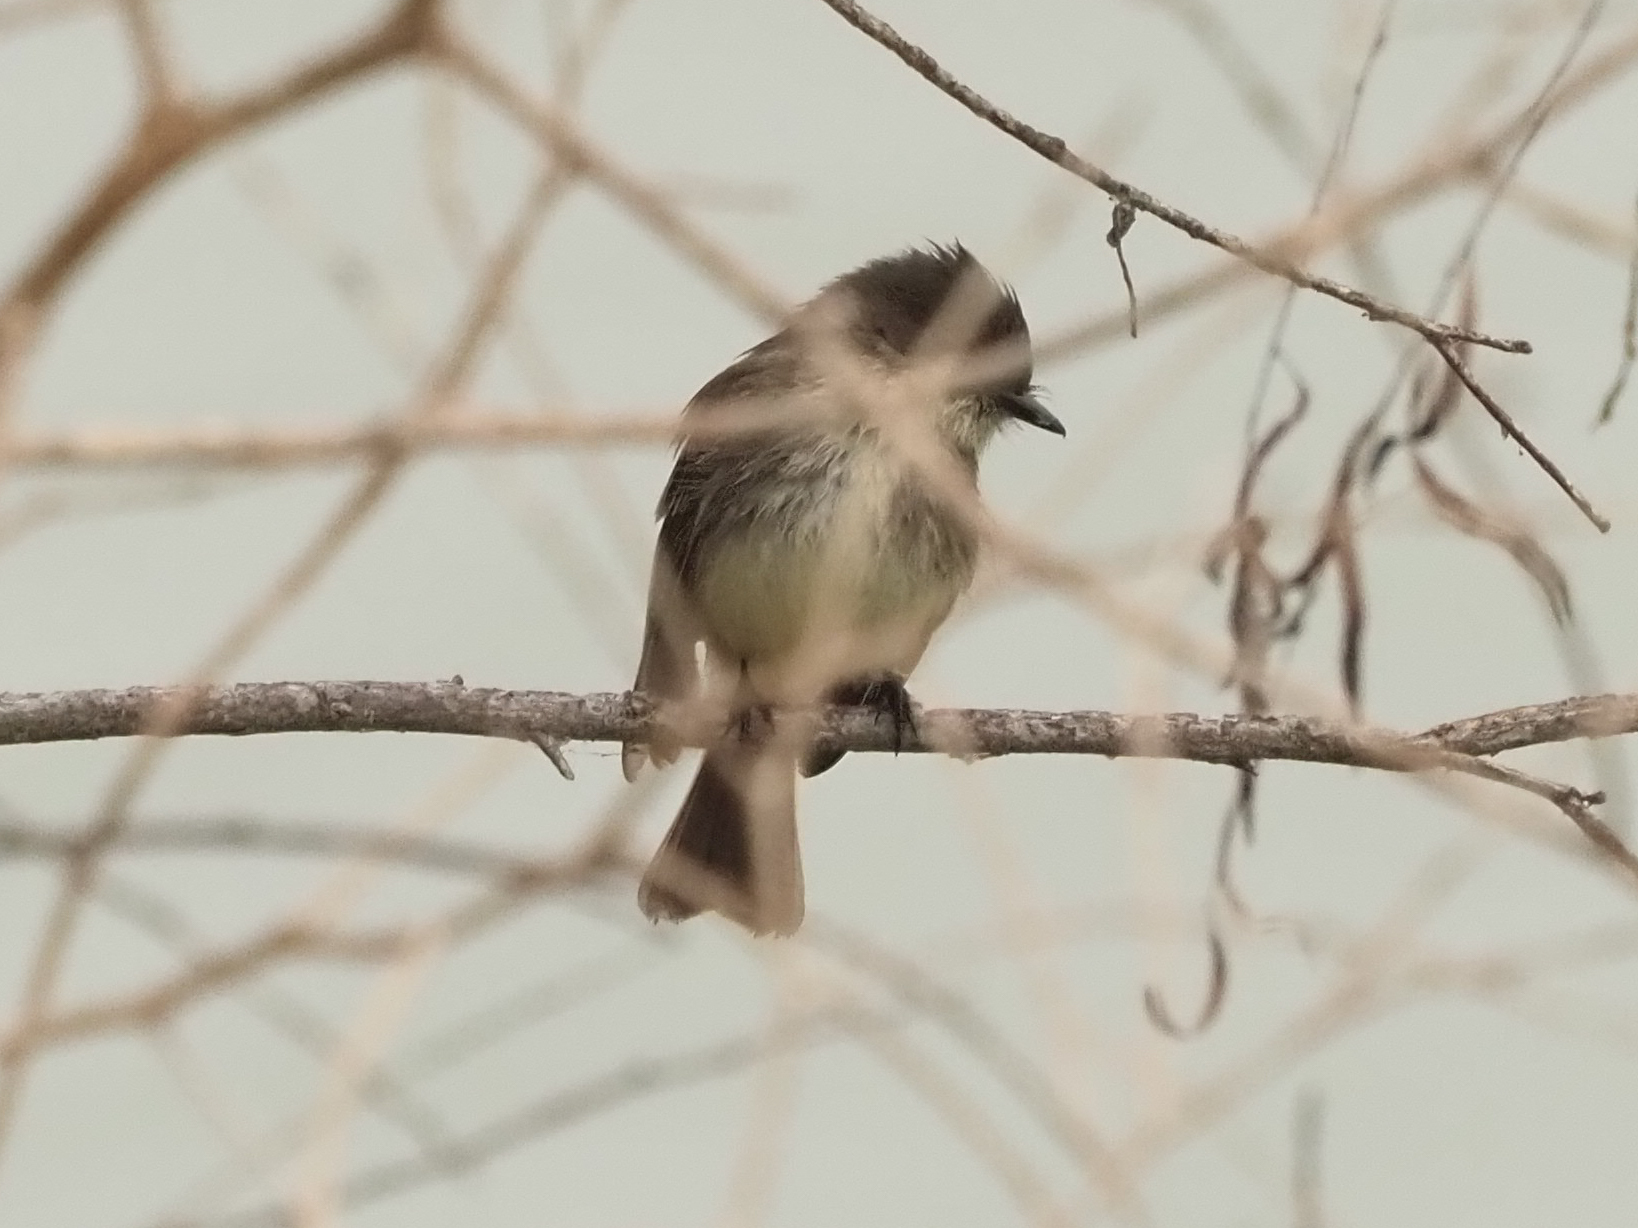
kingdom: Animalia
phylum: Chordata
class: Aves
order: Passeriformes
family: Tyrannidae
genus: Sayornis
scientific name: Sayornis phoebe
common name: Eastern phoebe
